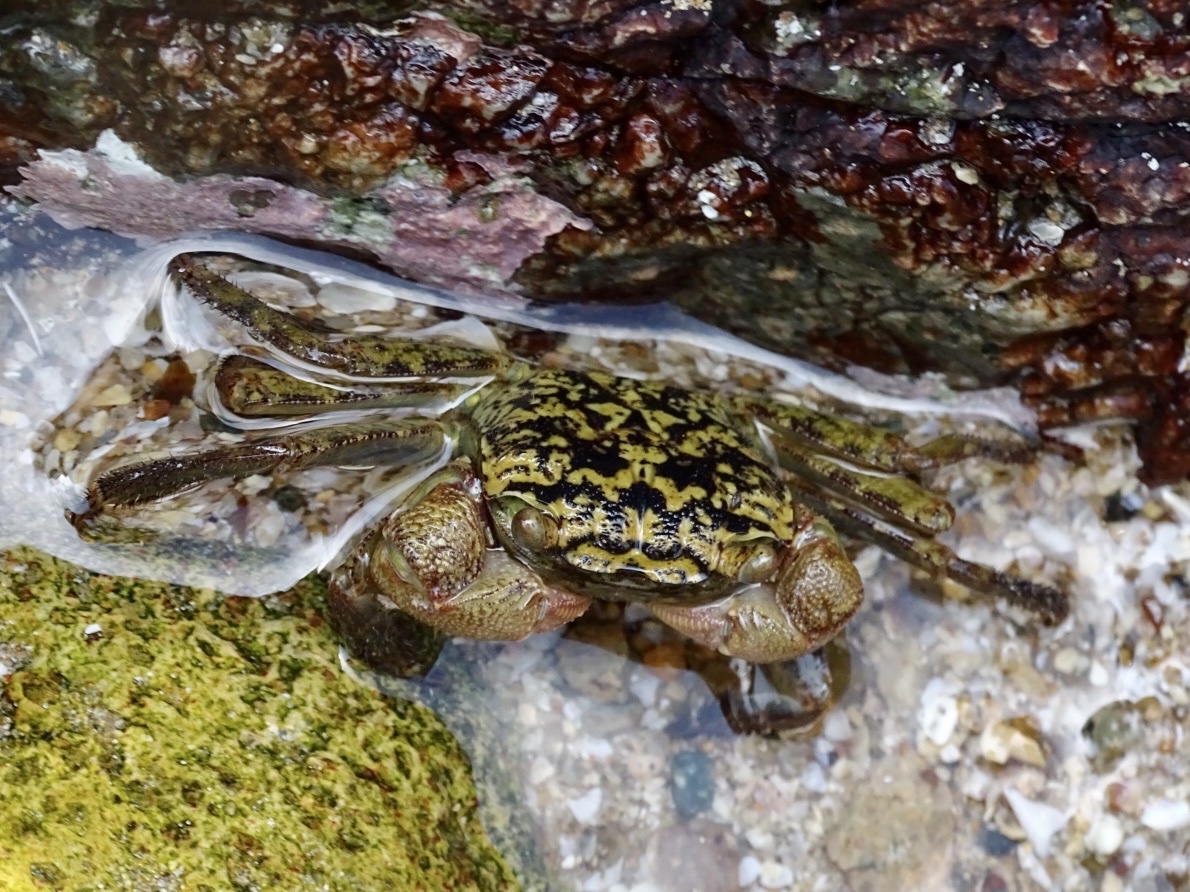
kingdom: Animalia
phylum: Arthropoda
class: Malacostraca
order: Decapoda
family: Sesarmidae
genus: Parasesarma
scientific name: Parasesarma pictum
